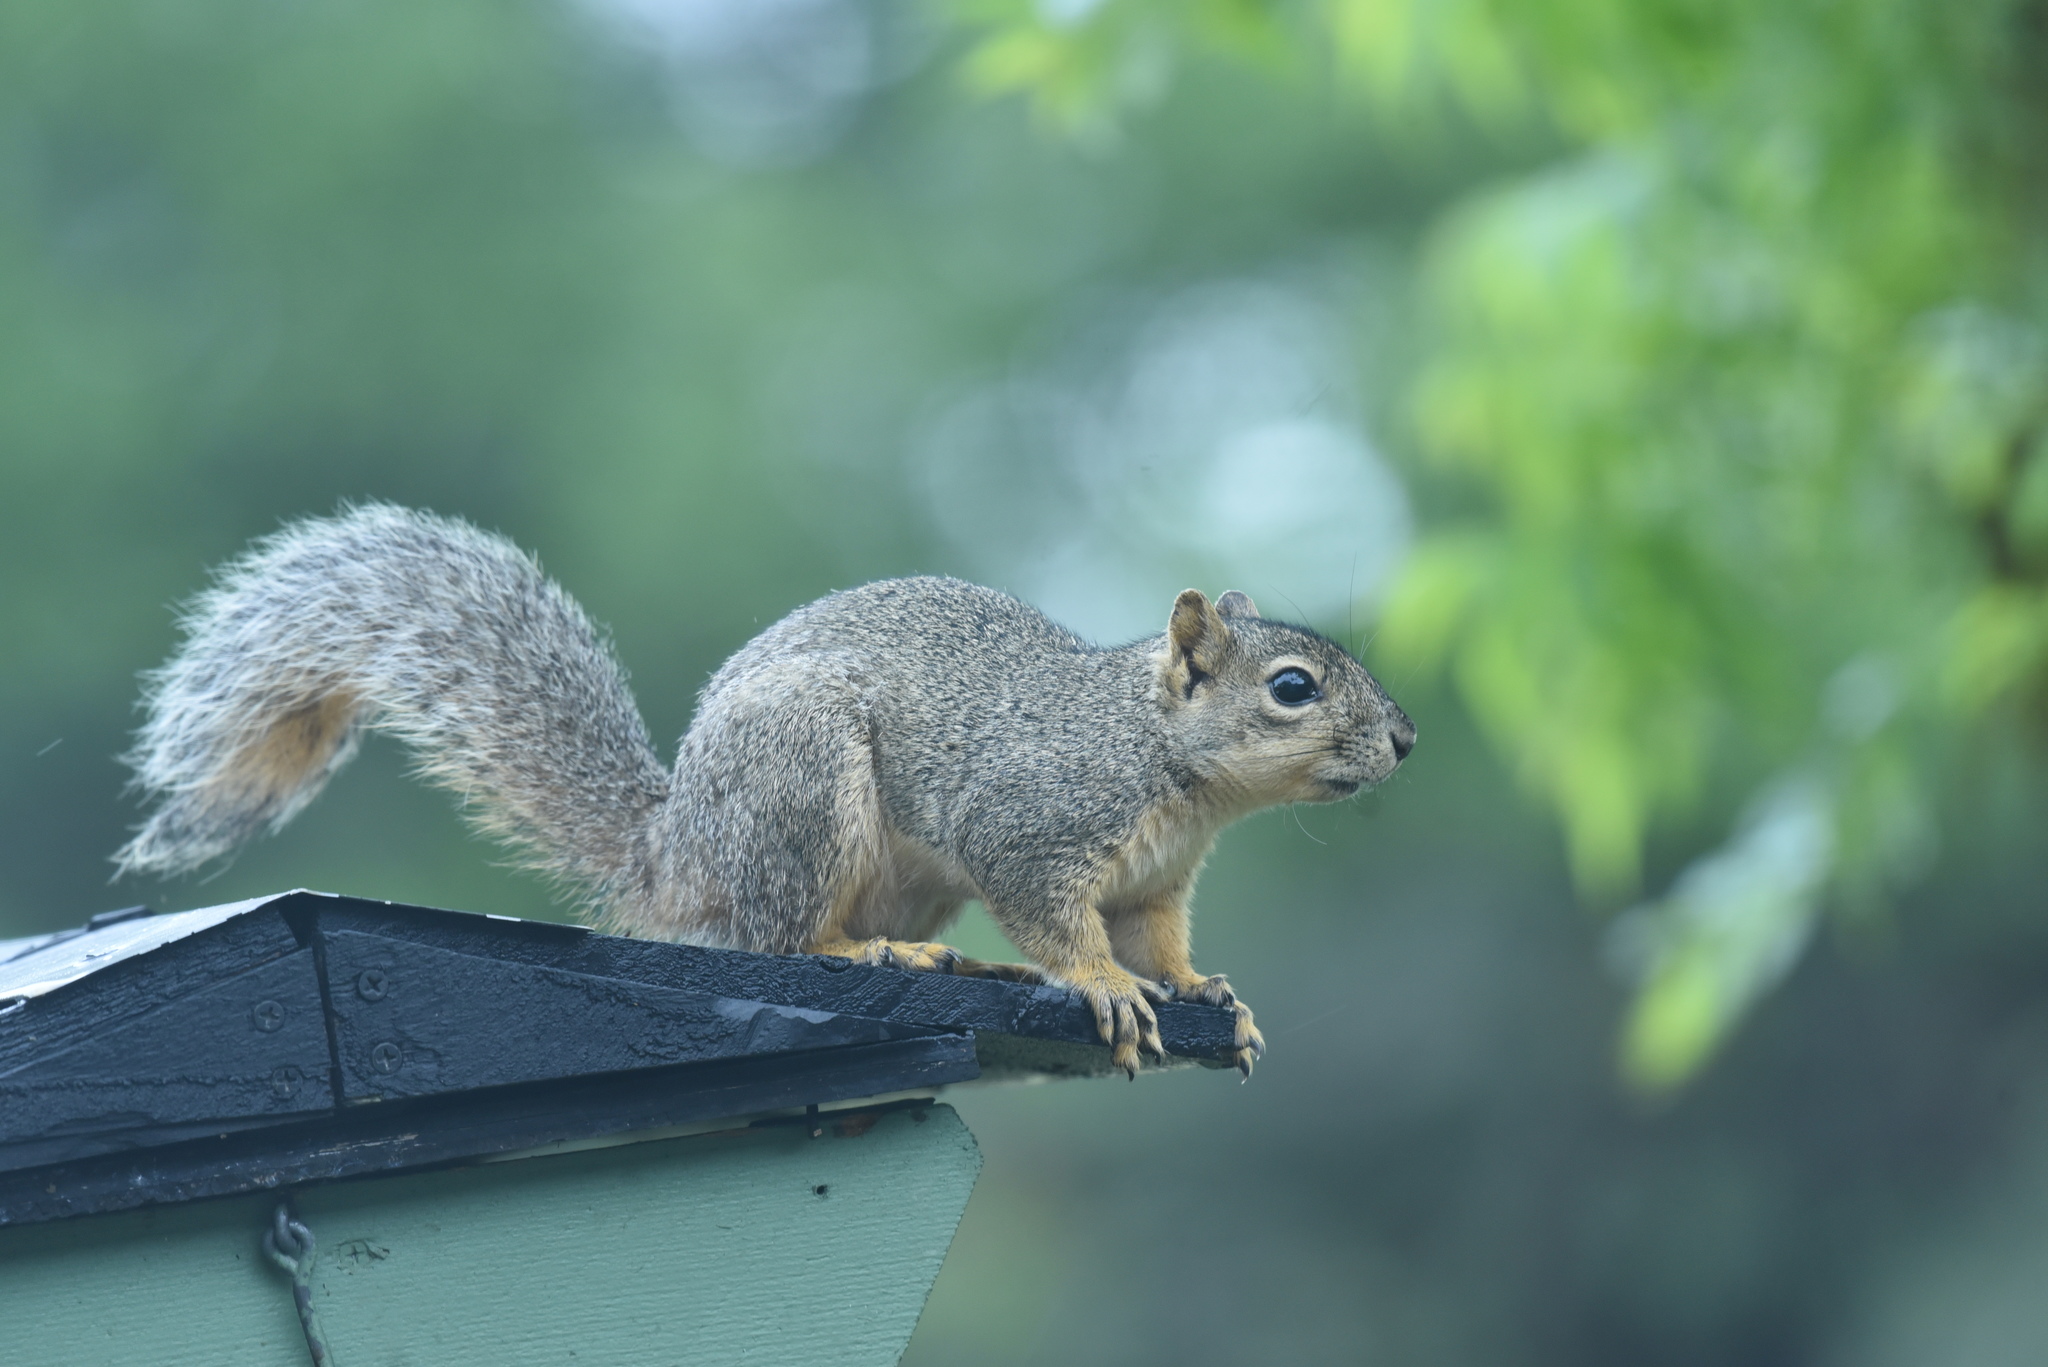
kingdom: Animalia
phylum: Chordata
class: Mammalia
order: Rodentia
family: Sciuridae
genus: Sciurus
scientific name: Sciurus niger
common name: Fox squirrel
